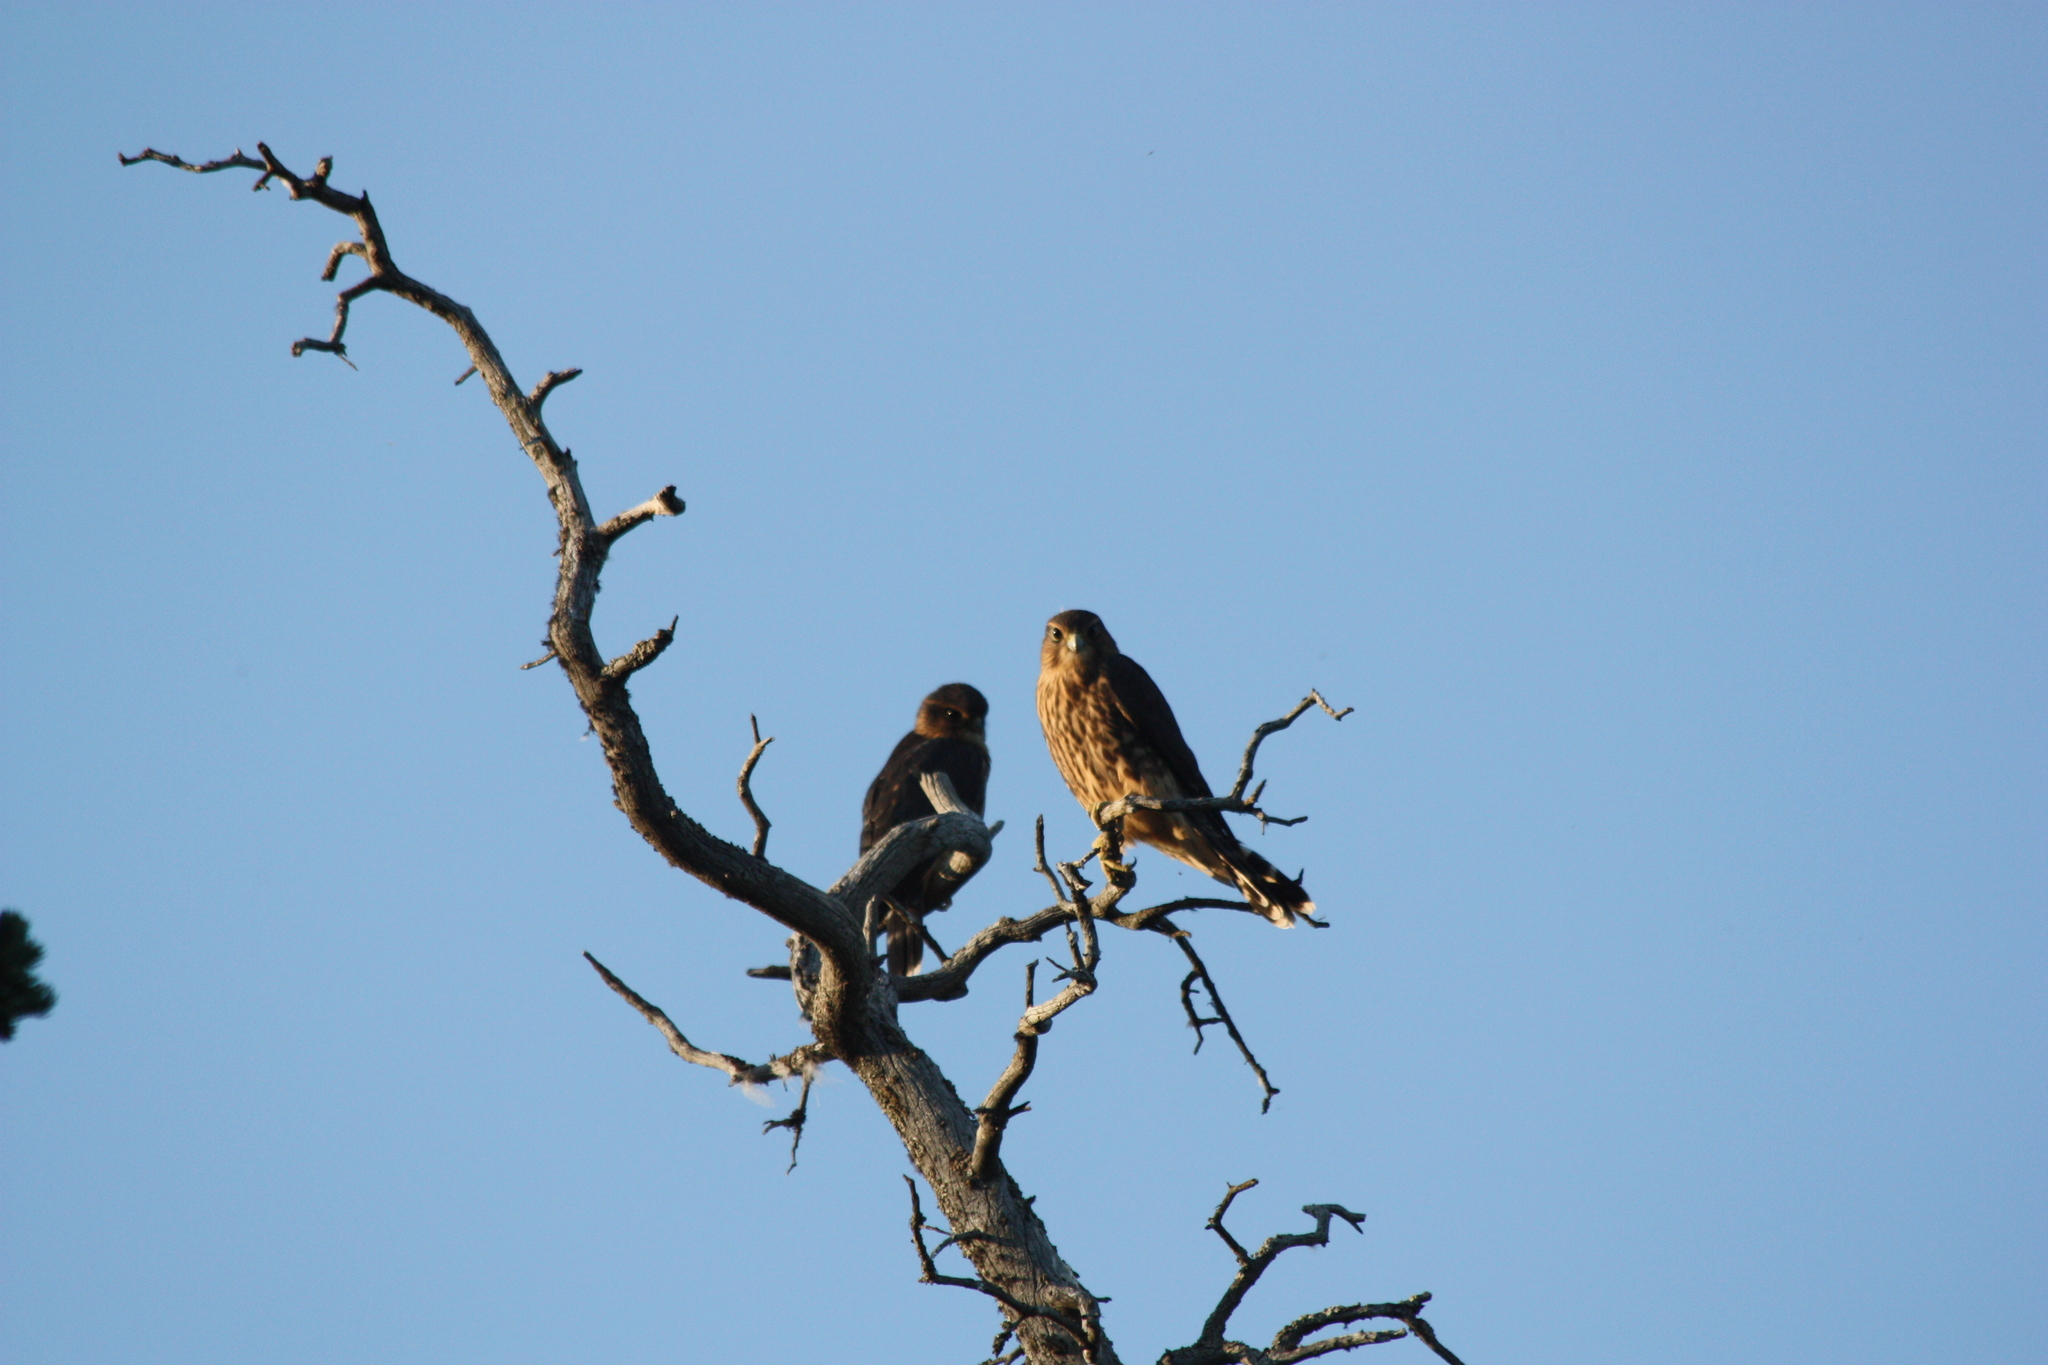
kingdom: Animalia
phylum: Chordata
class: Aves
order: Falconiformes
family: Falconidae
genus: Falco
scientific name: Falco columbarius
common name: Merlin
